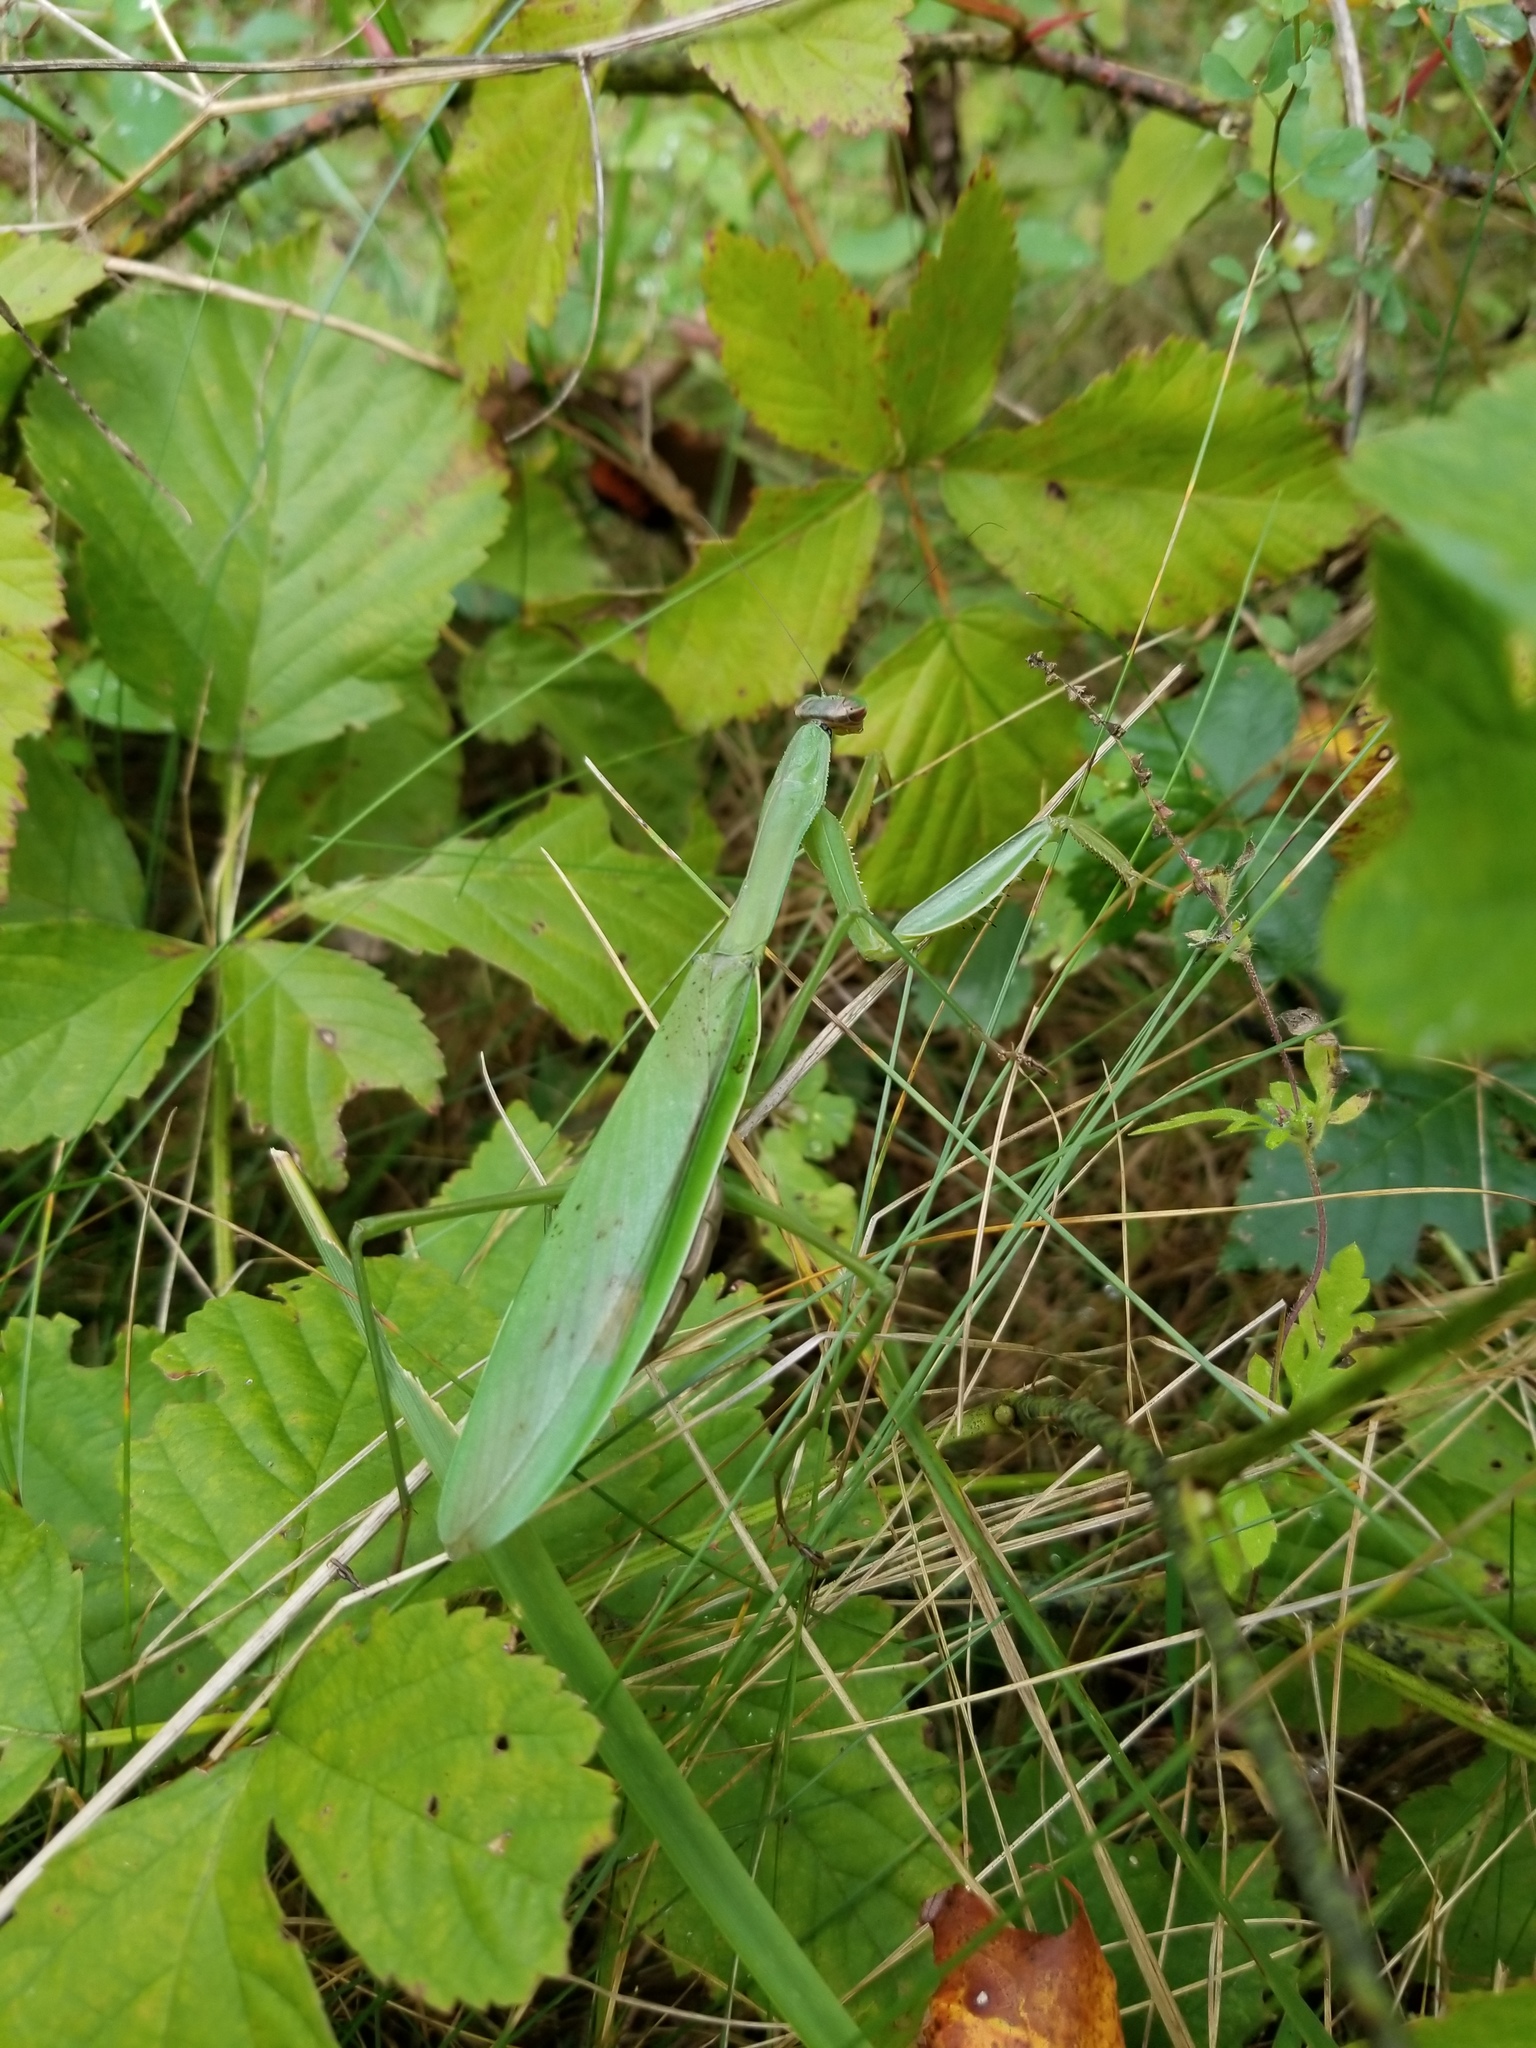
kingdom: Animalia
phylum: Arthropoda
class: Insecta
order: Mantodea
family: Mantidae
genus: Tenodera
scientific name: Tenodera sinensis
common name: Chinese mantis
